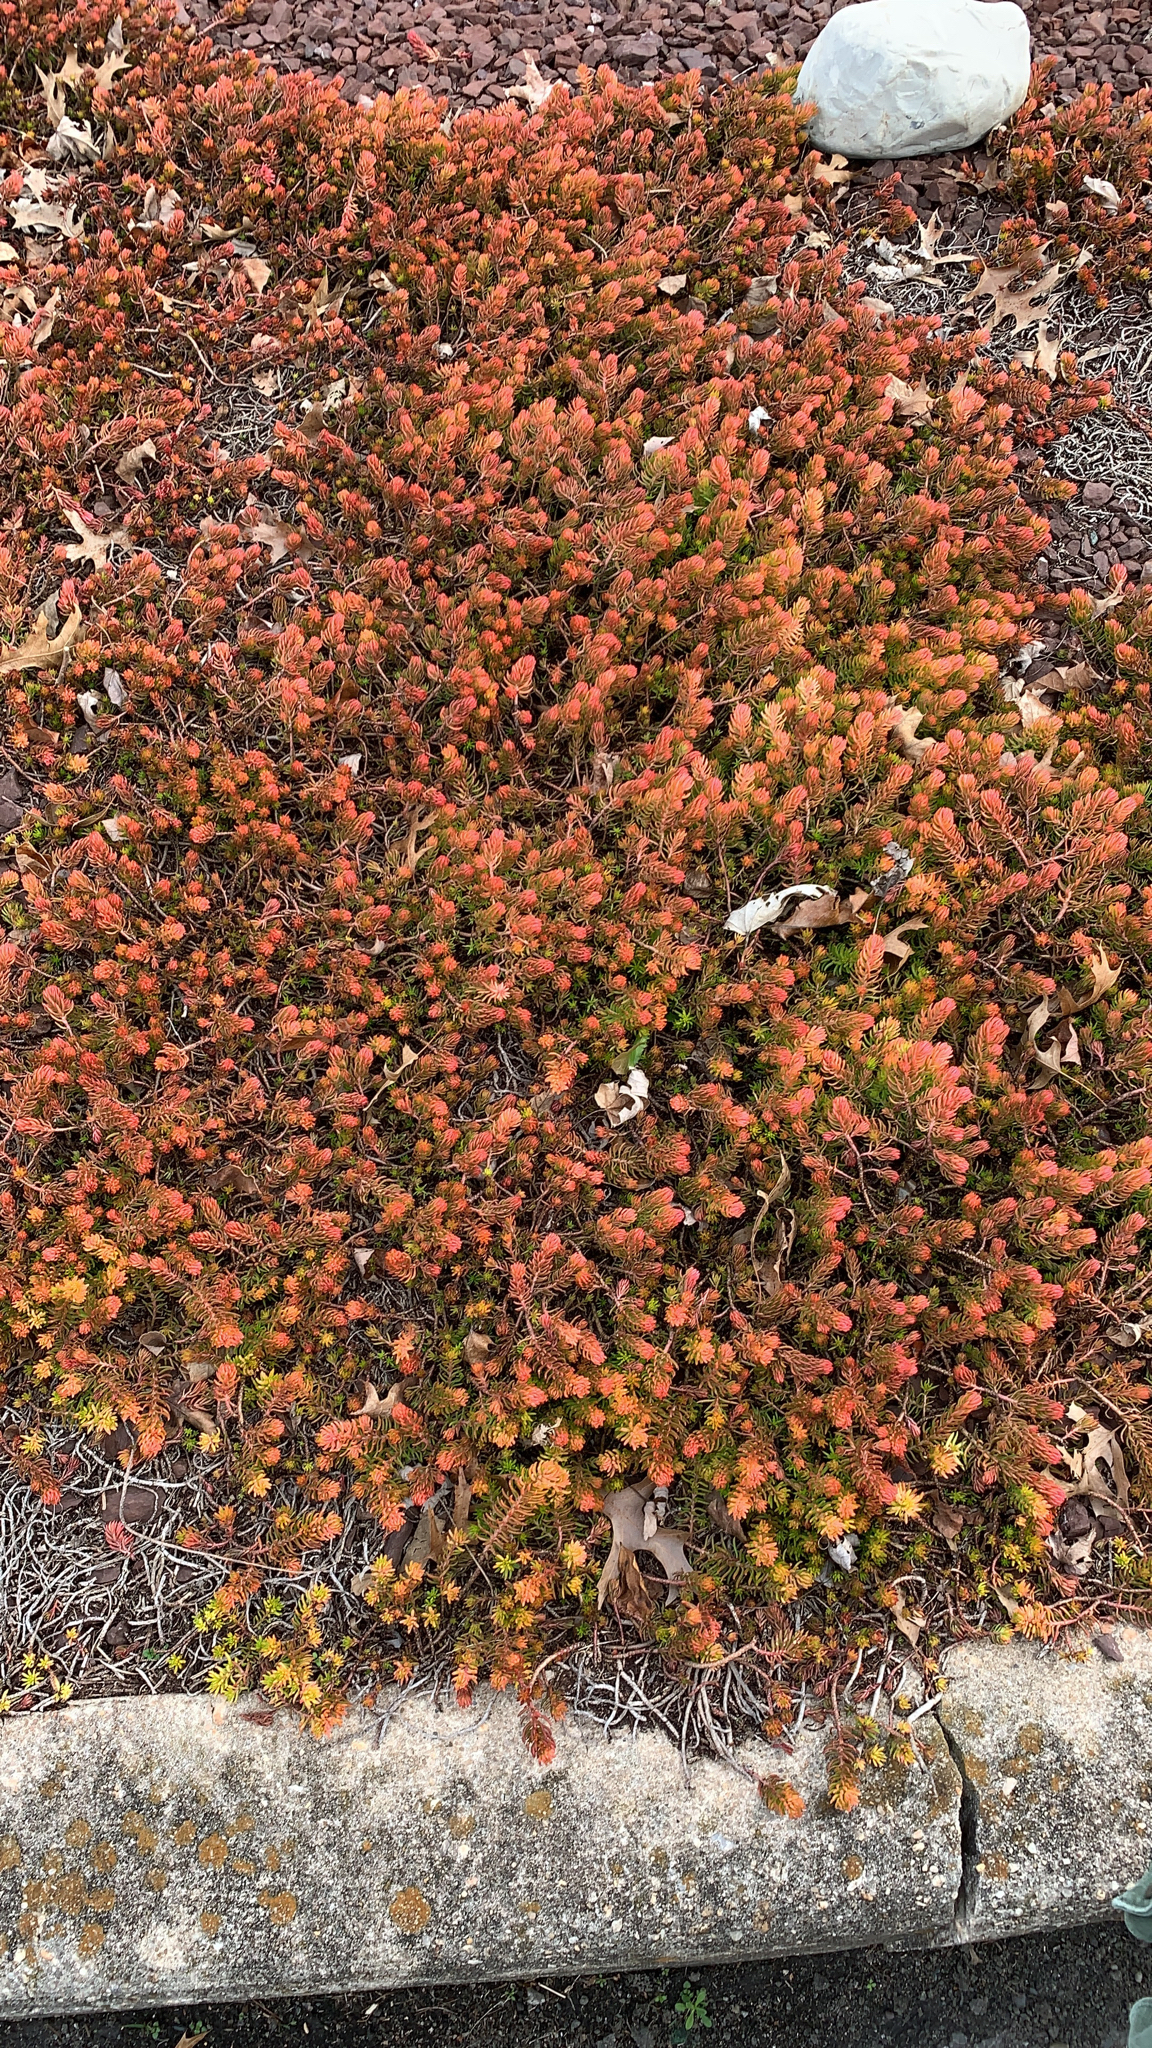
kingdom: Plantae
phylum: Tracheophyta
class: Magnoliopsida
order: Saxifragales
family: Crassulaceae
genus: Petrosedum
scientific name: Petrosedum rupestre
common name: Jenny's stonecrop
